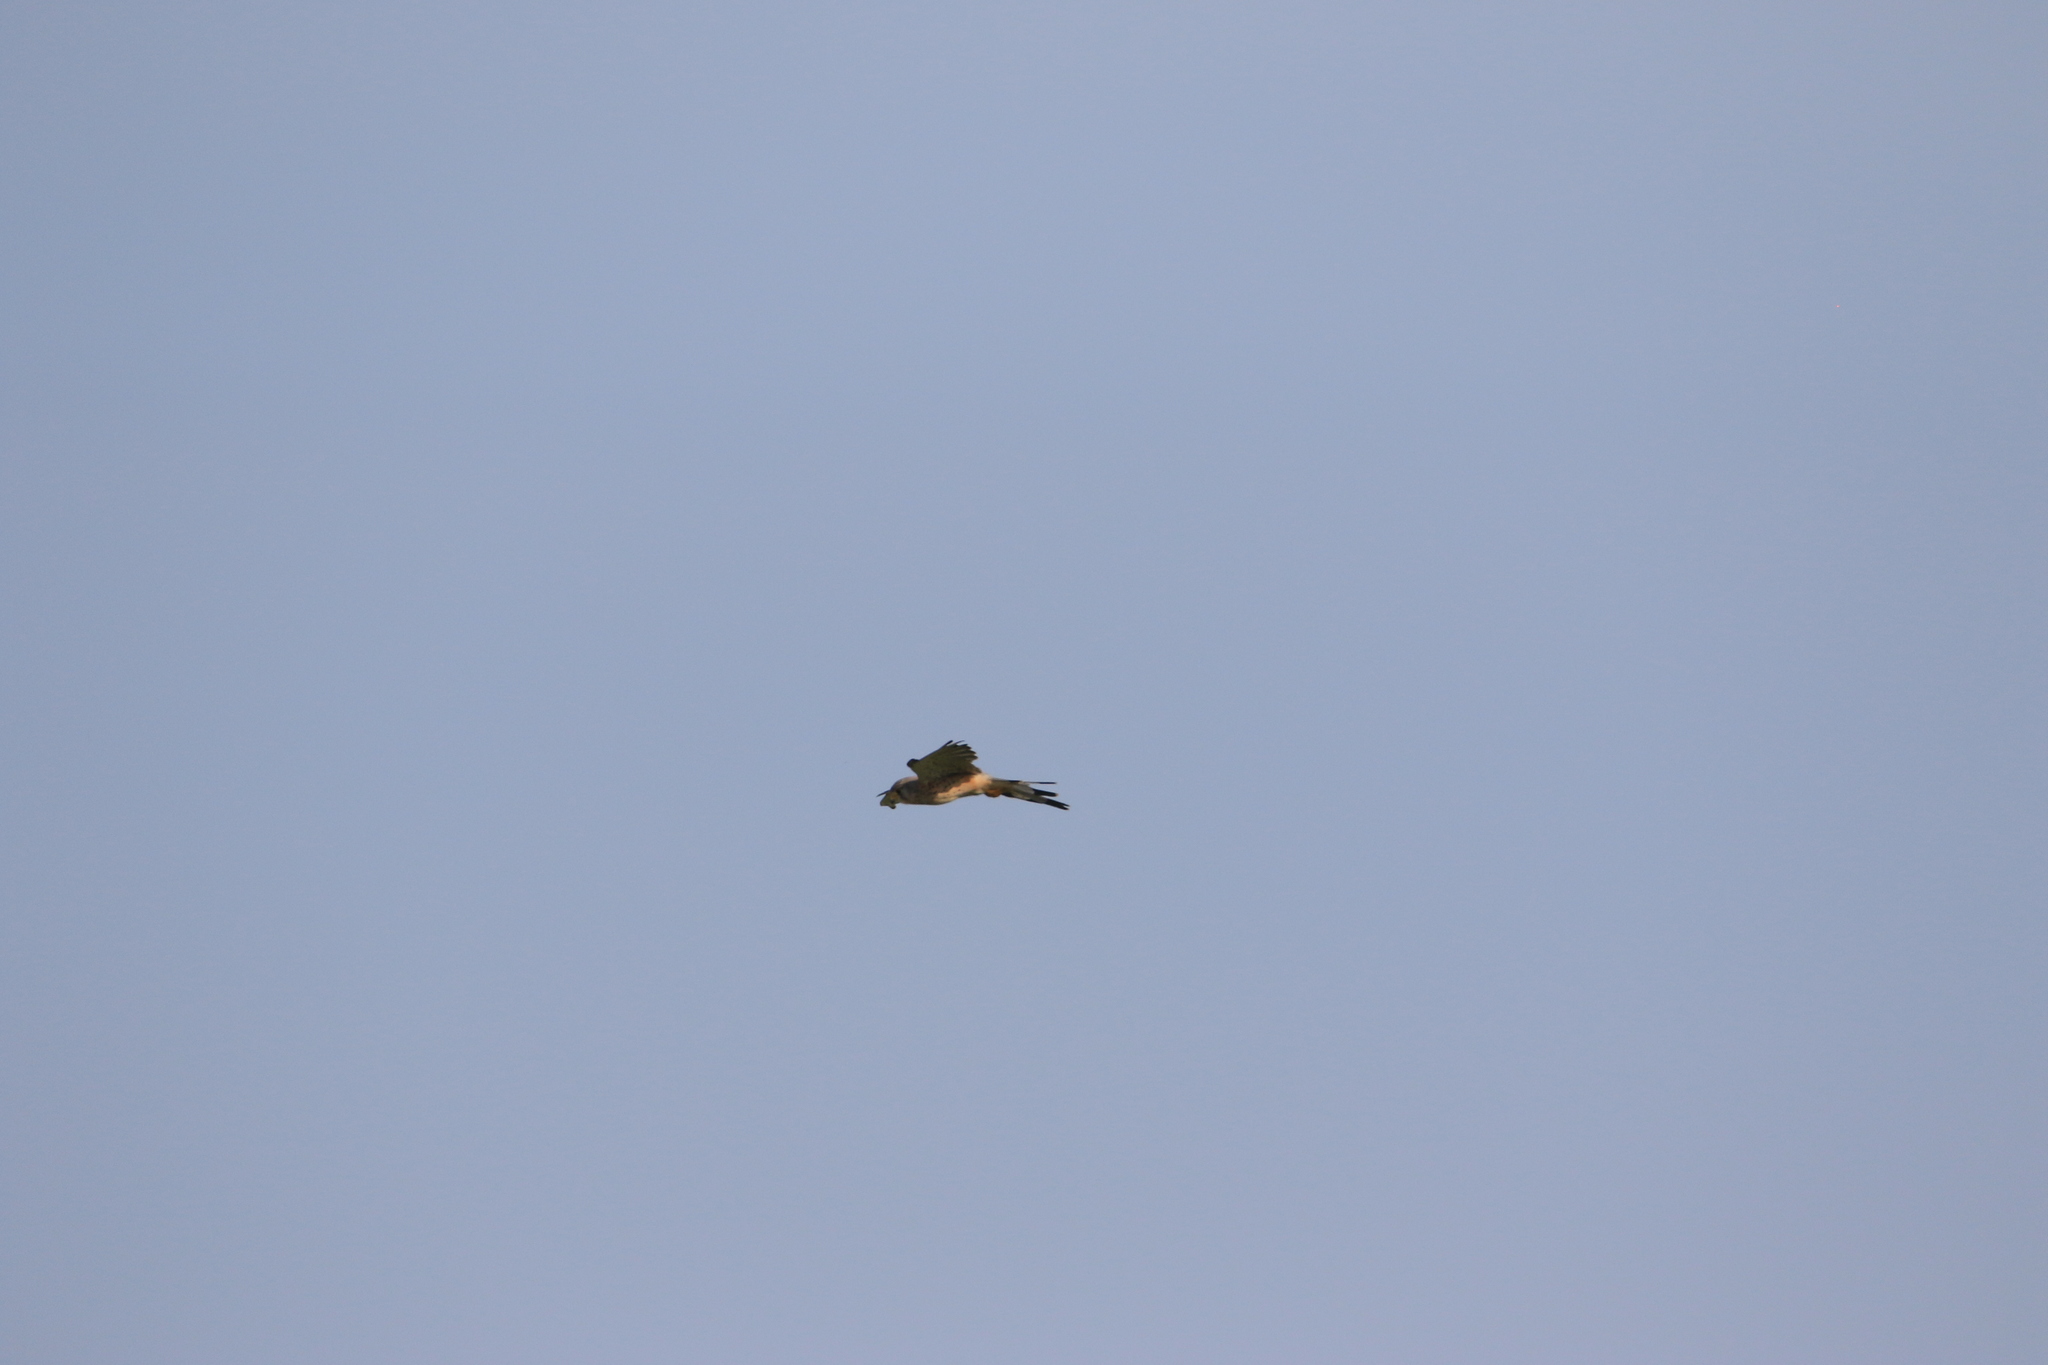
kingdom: Animalia
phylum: Chordata
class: Aves
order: Falconiformes
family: Falconidae
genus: Falco
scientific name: Falco tinnunculus
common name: Common kestrel
